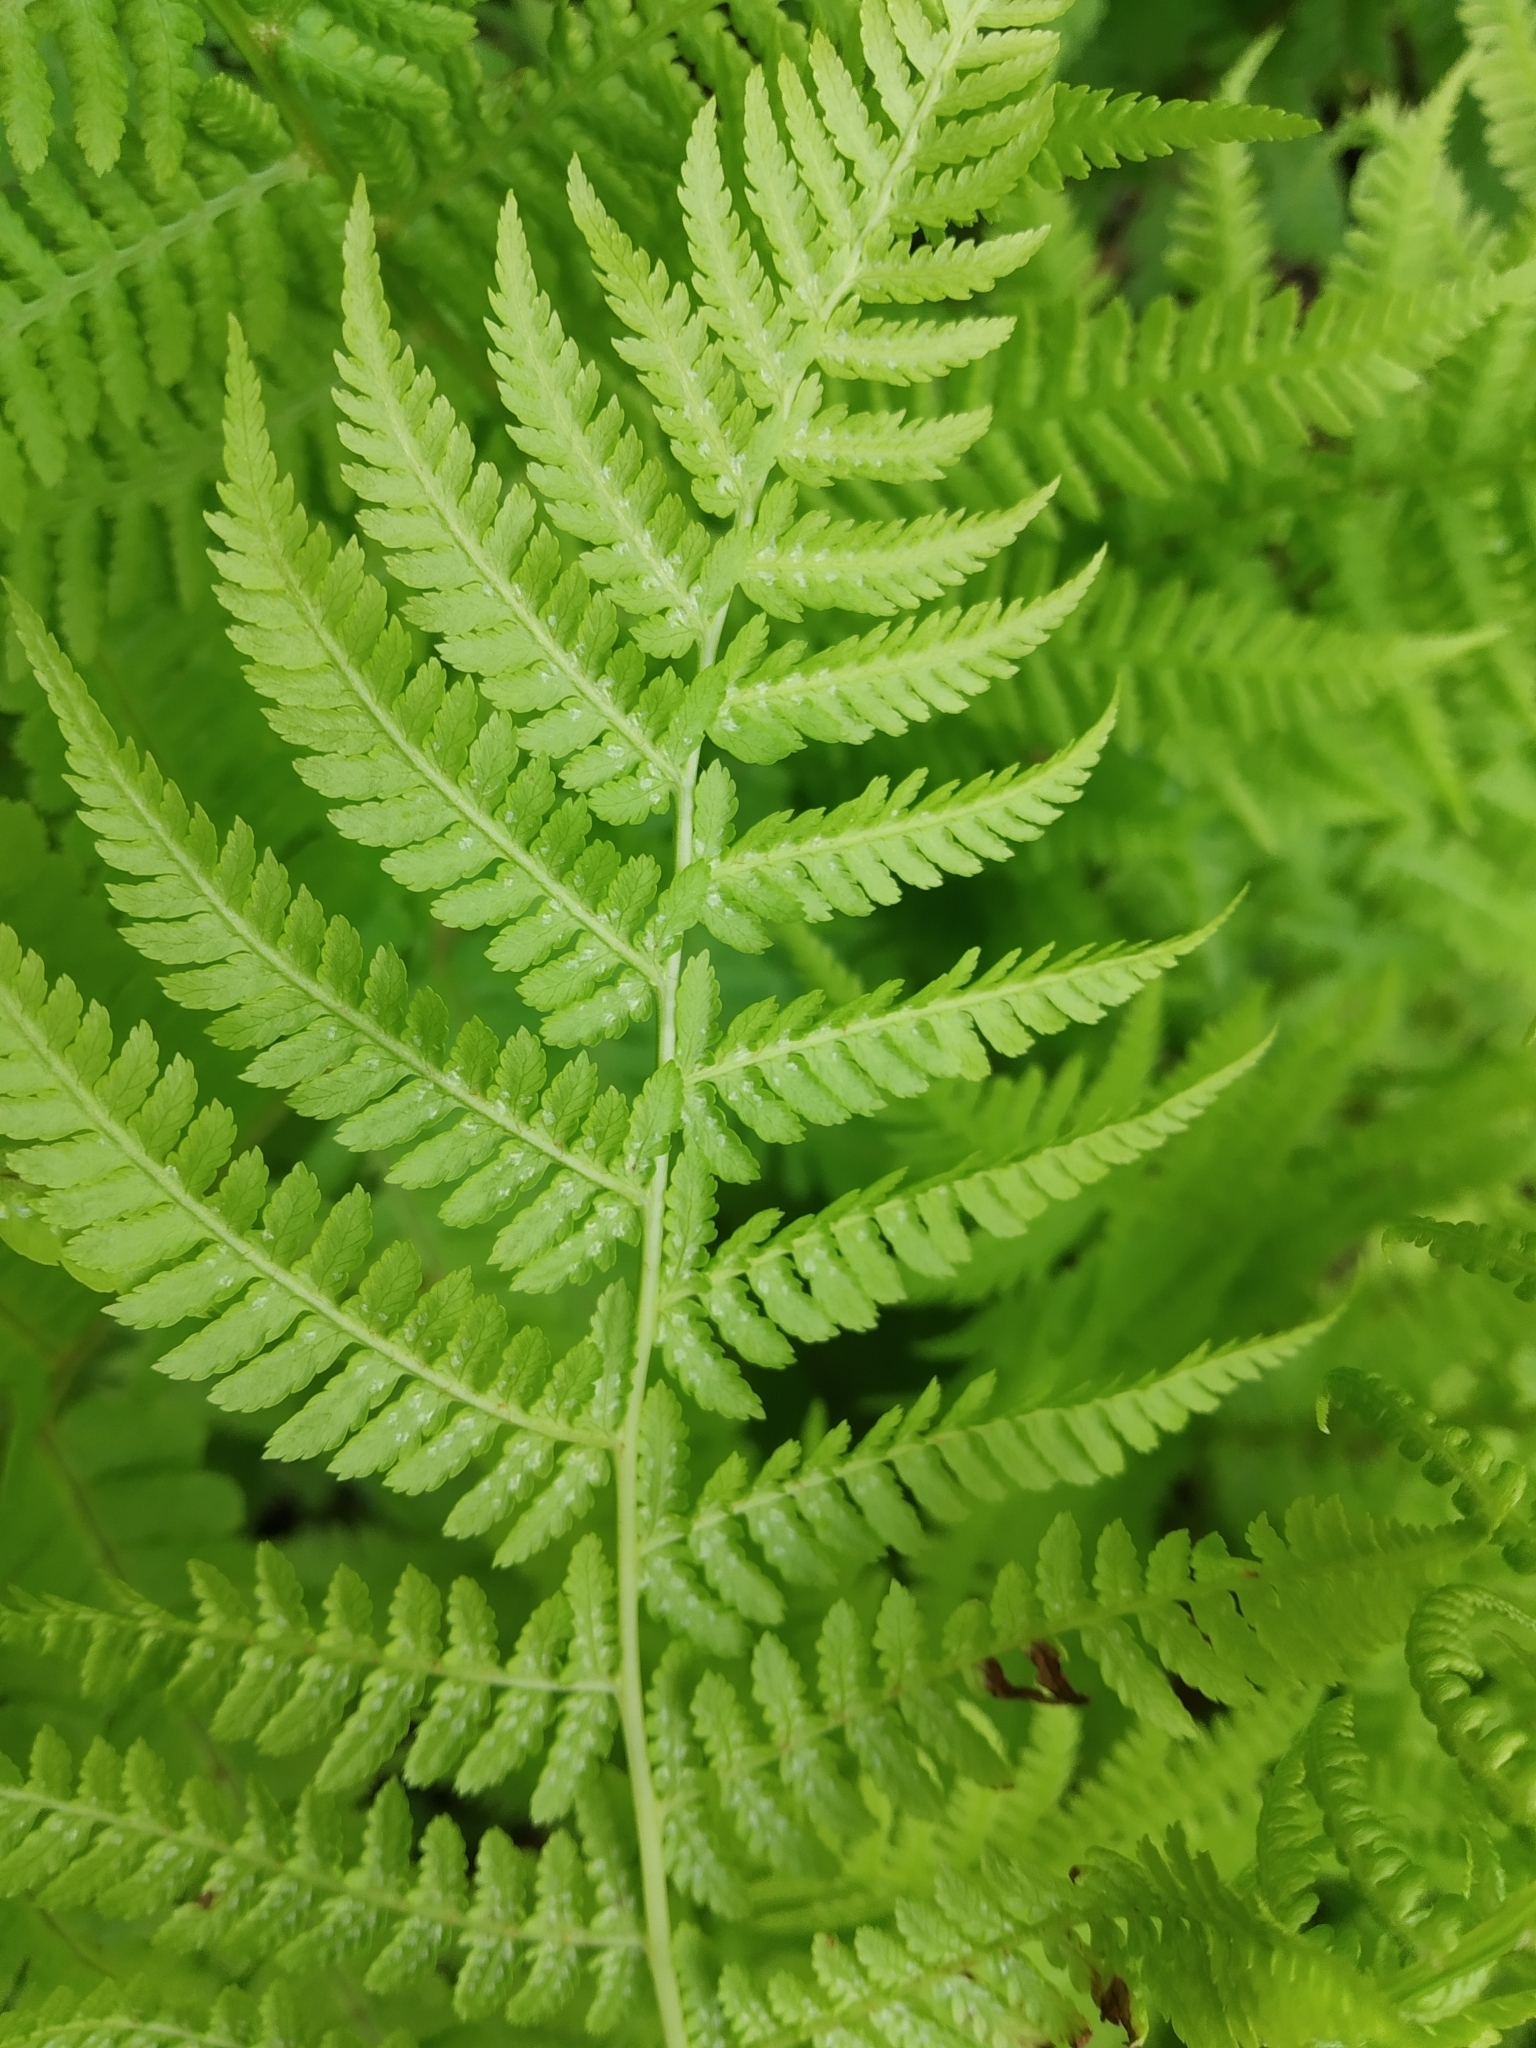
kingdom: Plantae
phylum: Tracheophyta
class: Polypodiopsida
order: Polypodiales
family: Athyriaceae
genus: Athyrium
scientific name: Athyrium filix-femina
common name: Lady fern
